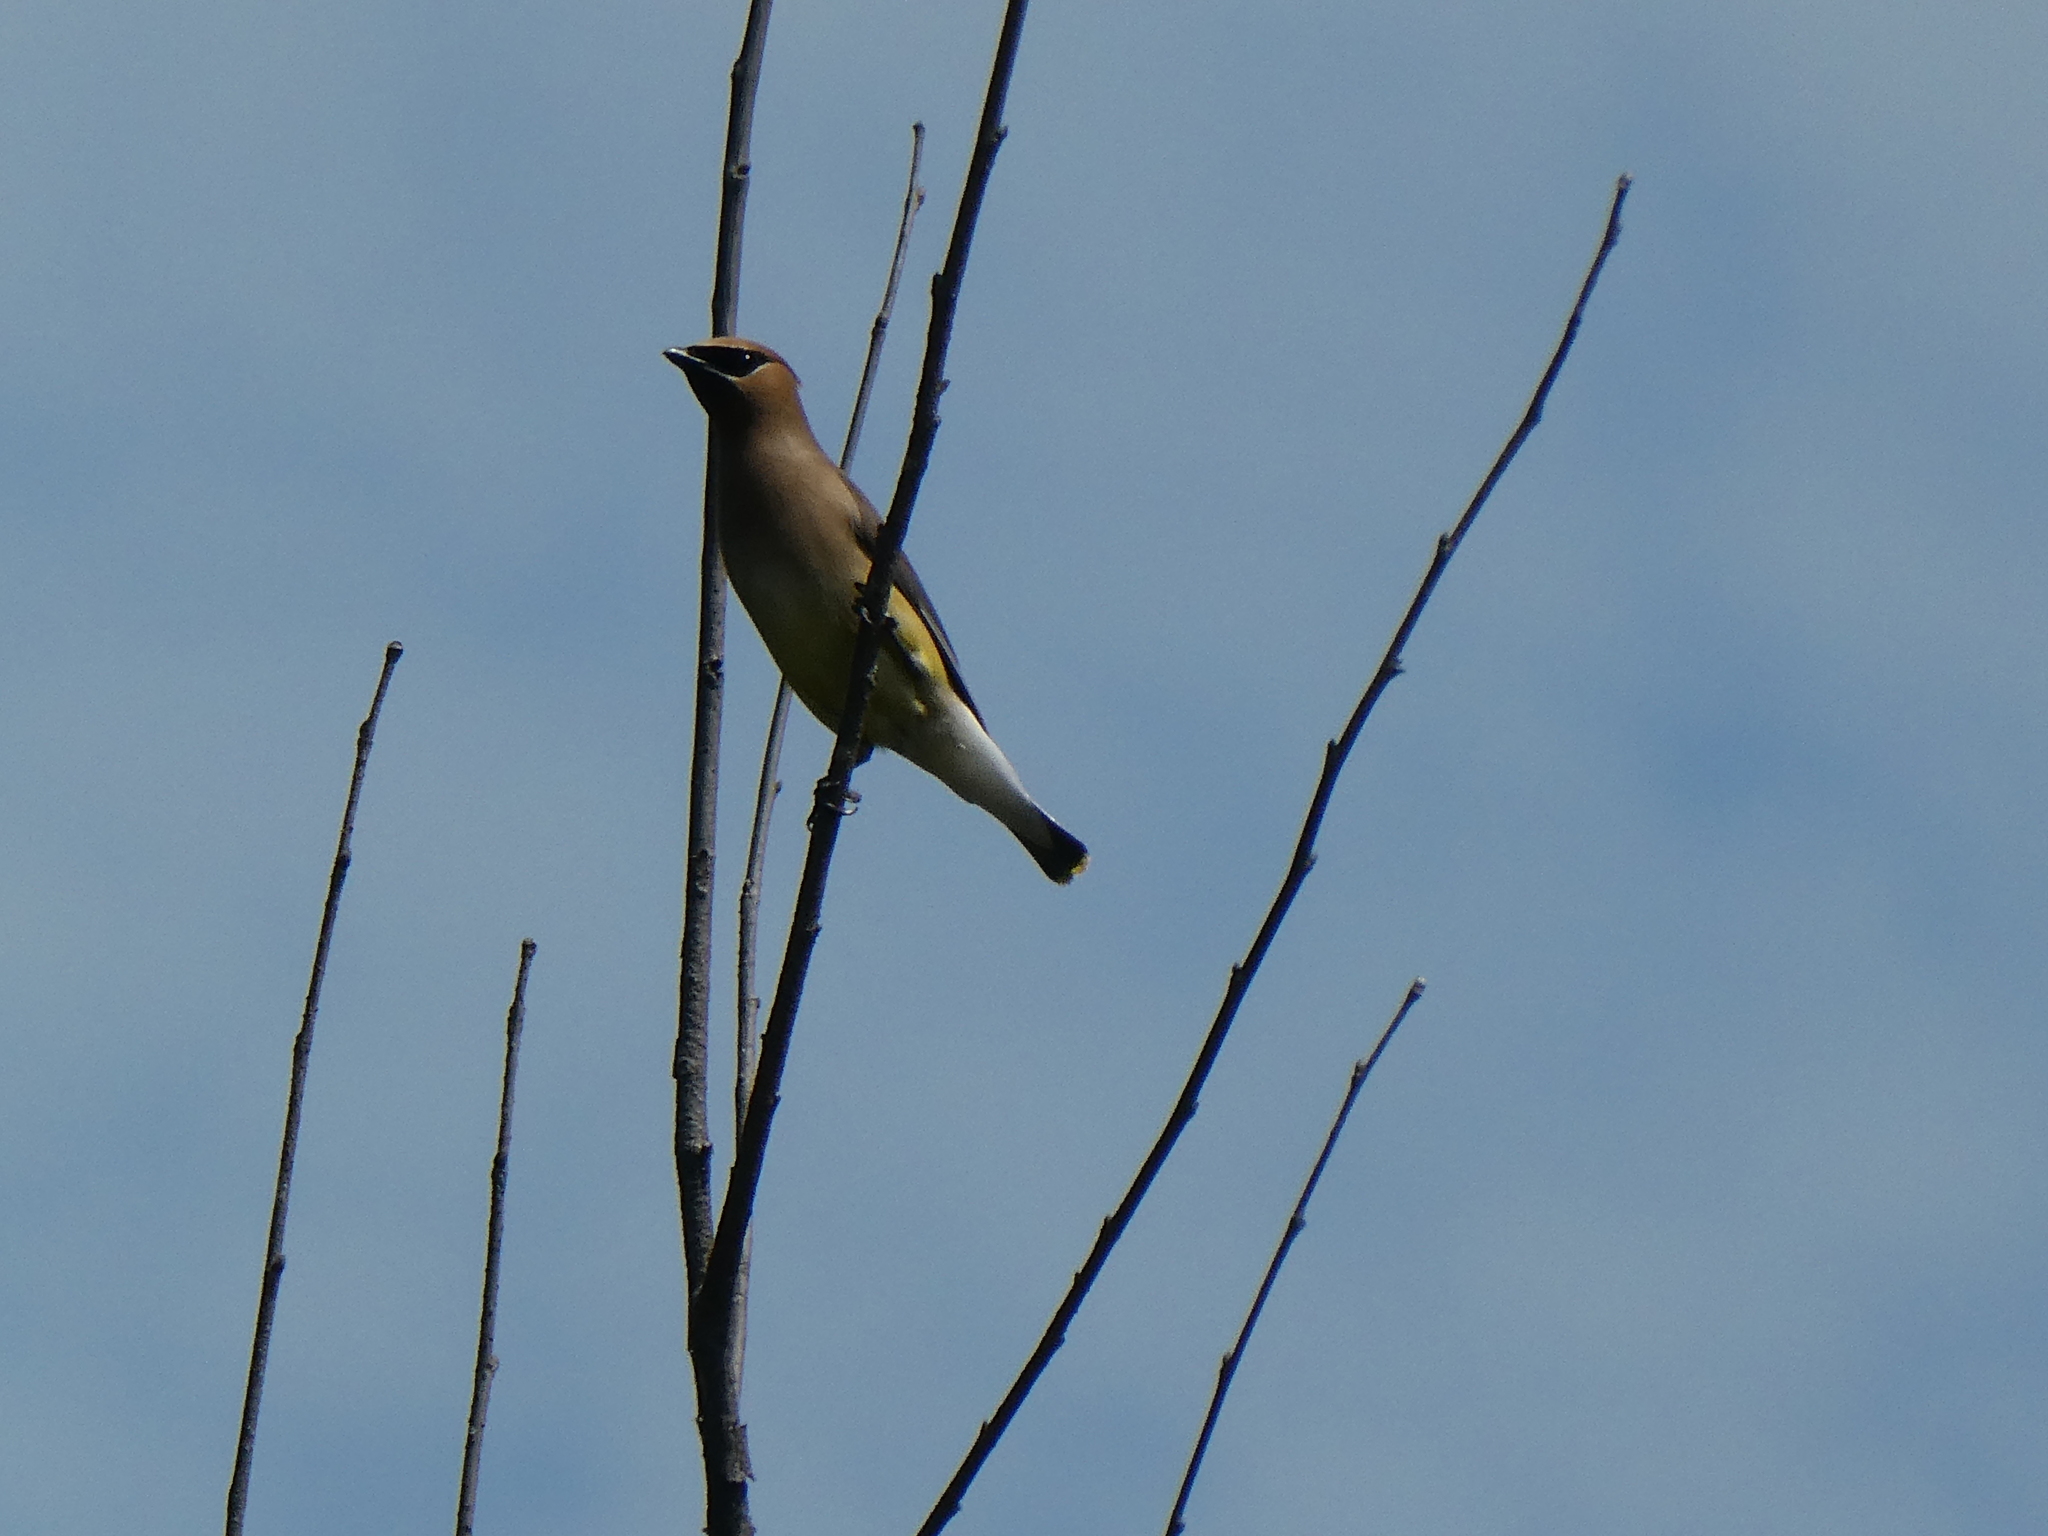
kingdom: Animalia
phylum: Chordata
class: Aves
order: Passeriformes
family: Bombycillidae
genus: Bombycilla
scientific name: Bombycilla cedrorum
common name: Cedar waxwing
